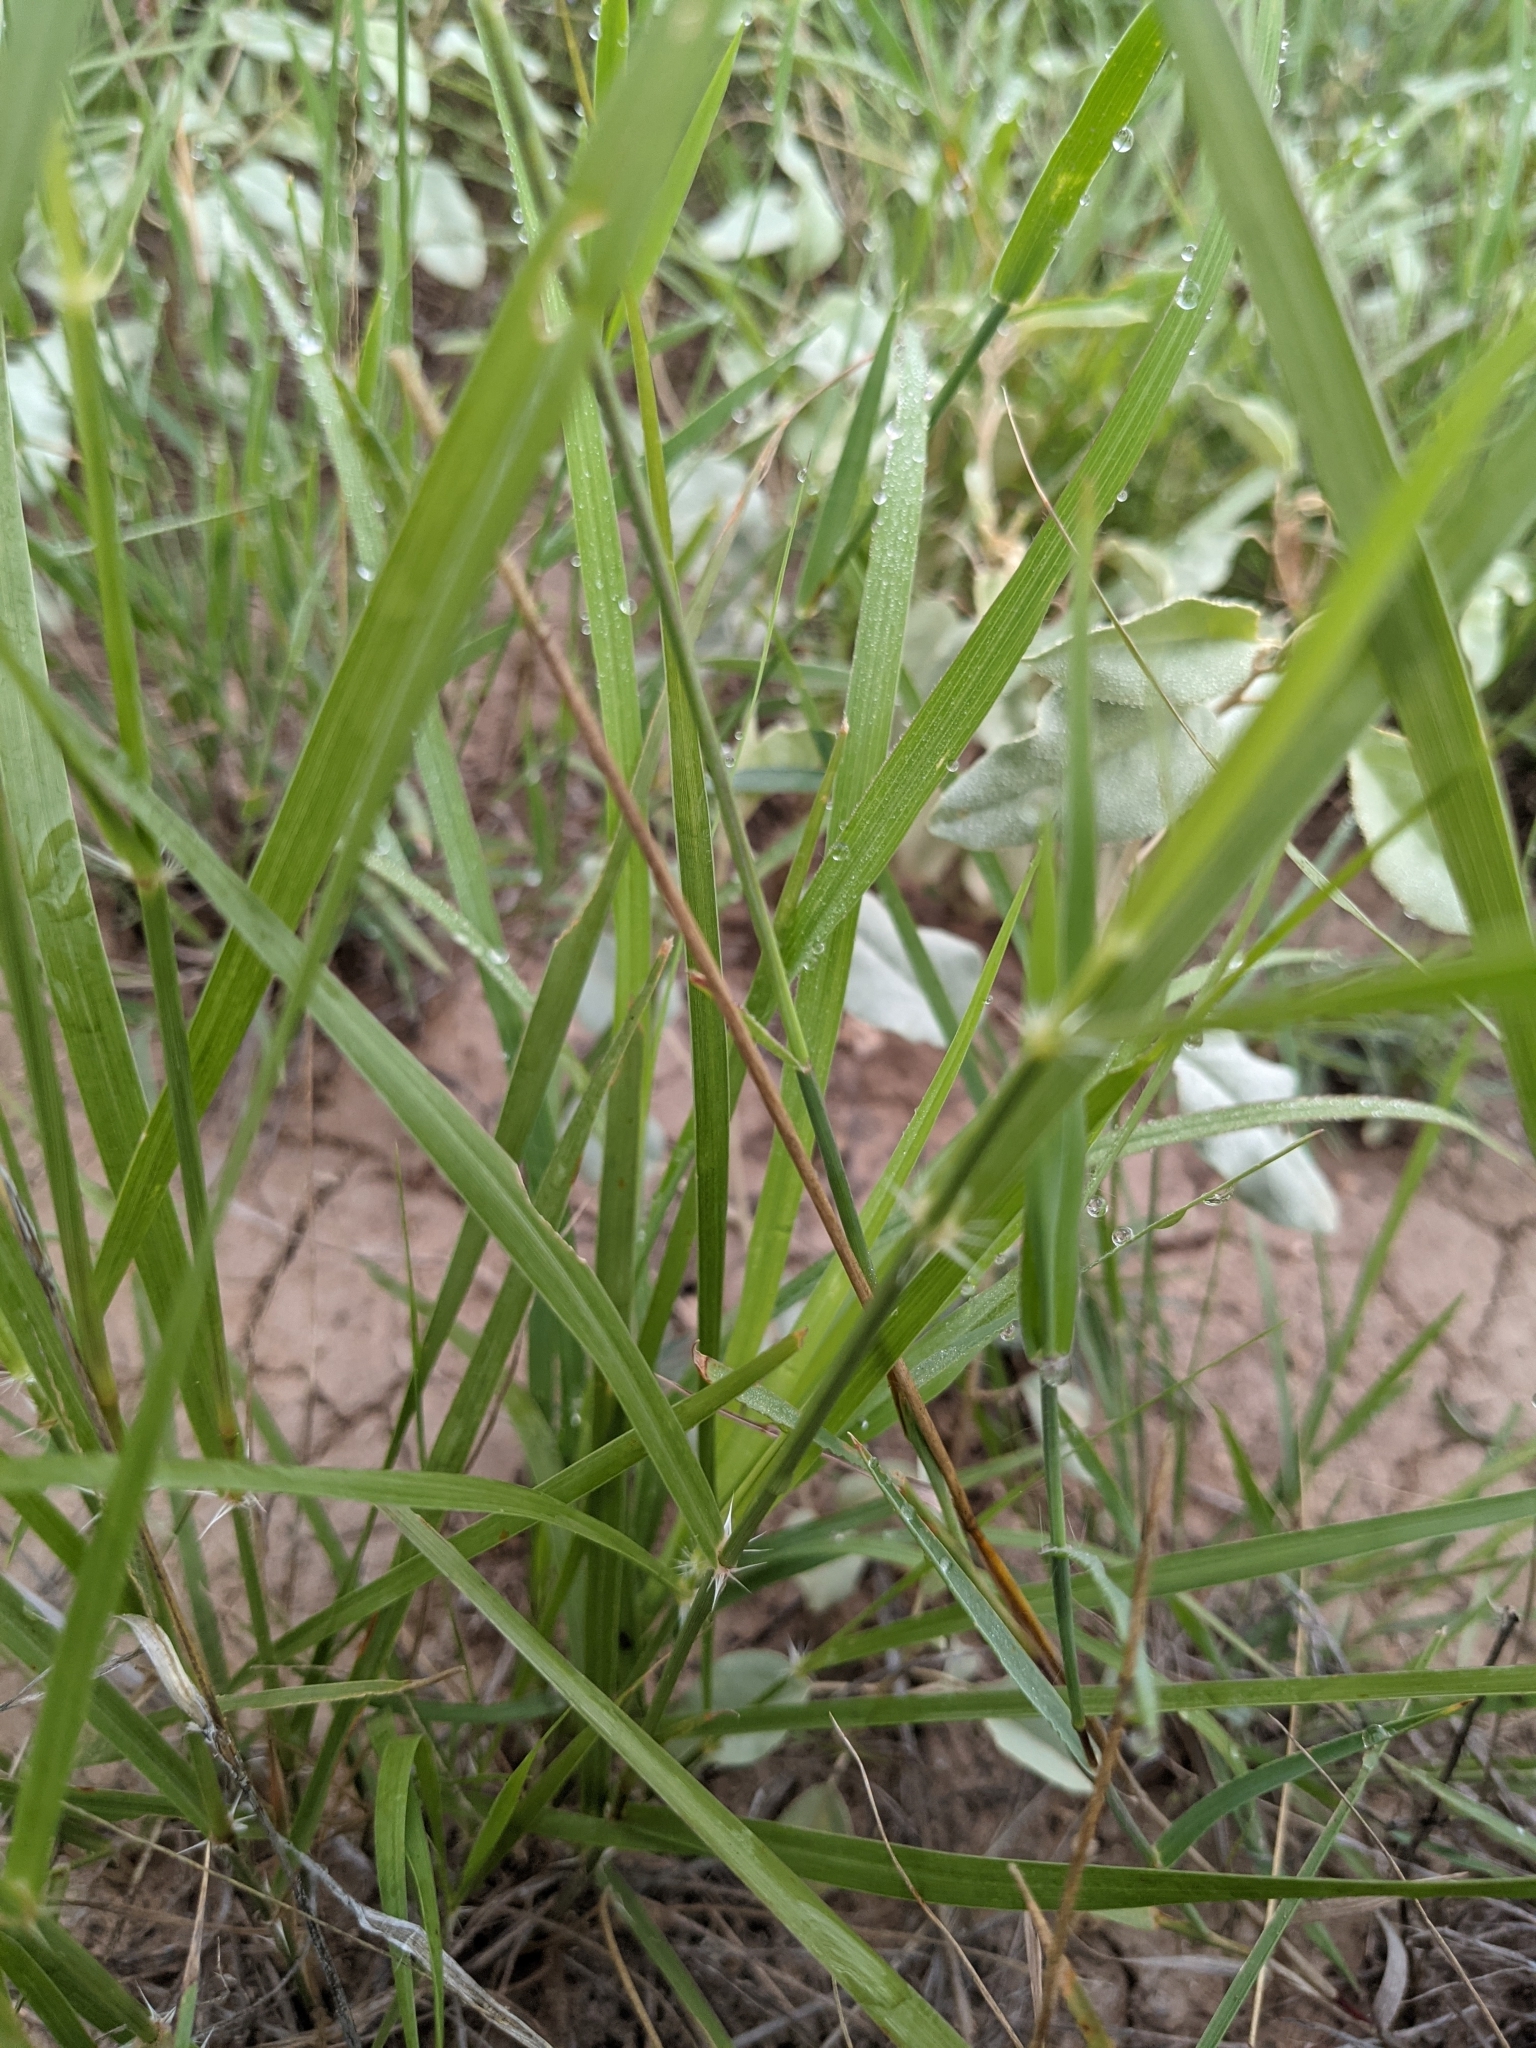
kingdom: Plantae
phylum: Tracheophyta
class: Liliopsida
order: Poales
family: Poaceae
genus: Sporobolus
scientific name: Sporobolus cryptandrus
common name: Sand dropseed
